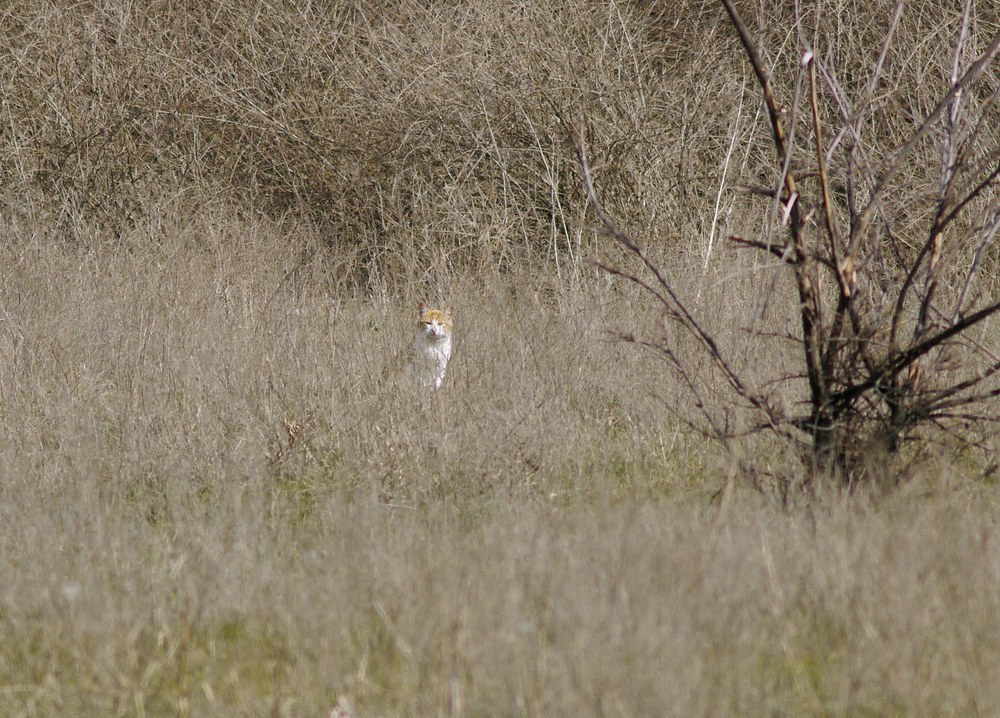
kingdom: Animalia
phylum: Chordata
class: Mammalia
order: Carnivora
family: Felidae
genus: Felis
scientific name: Felis catus
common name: Domestic cat
